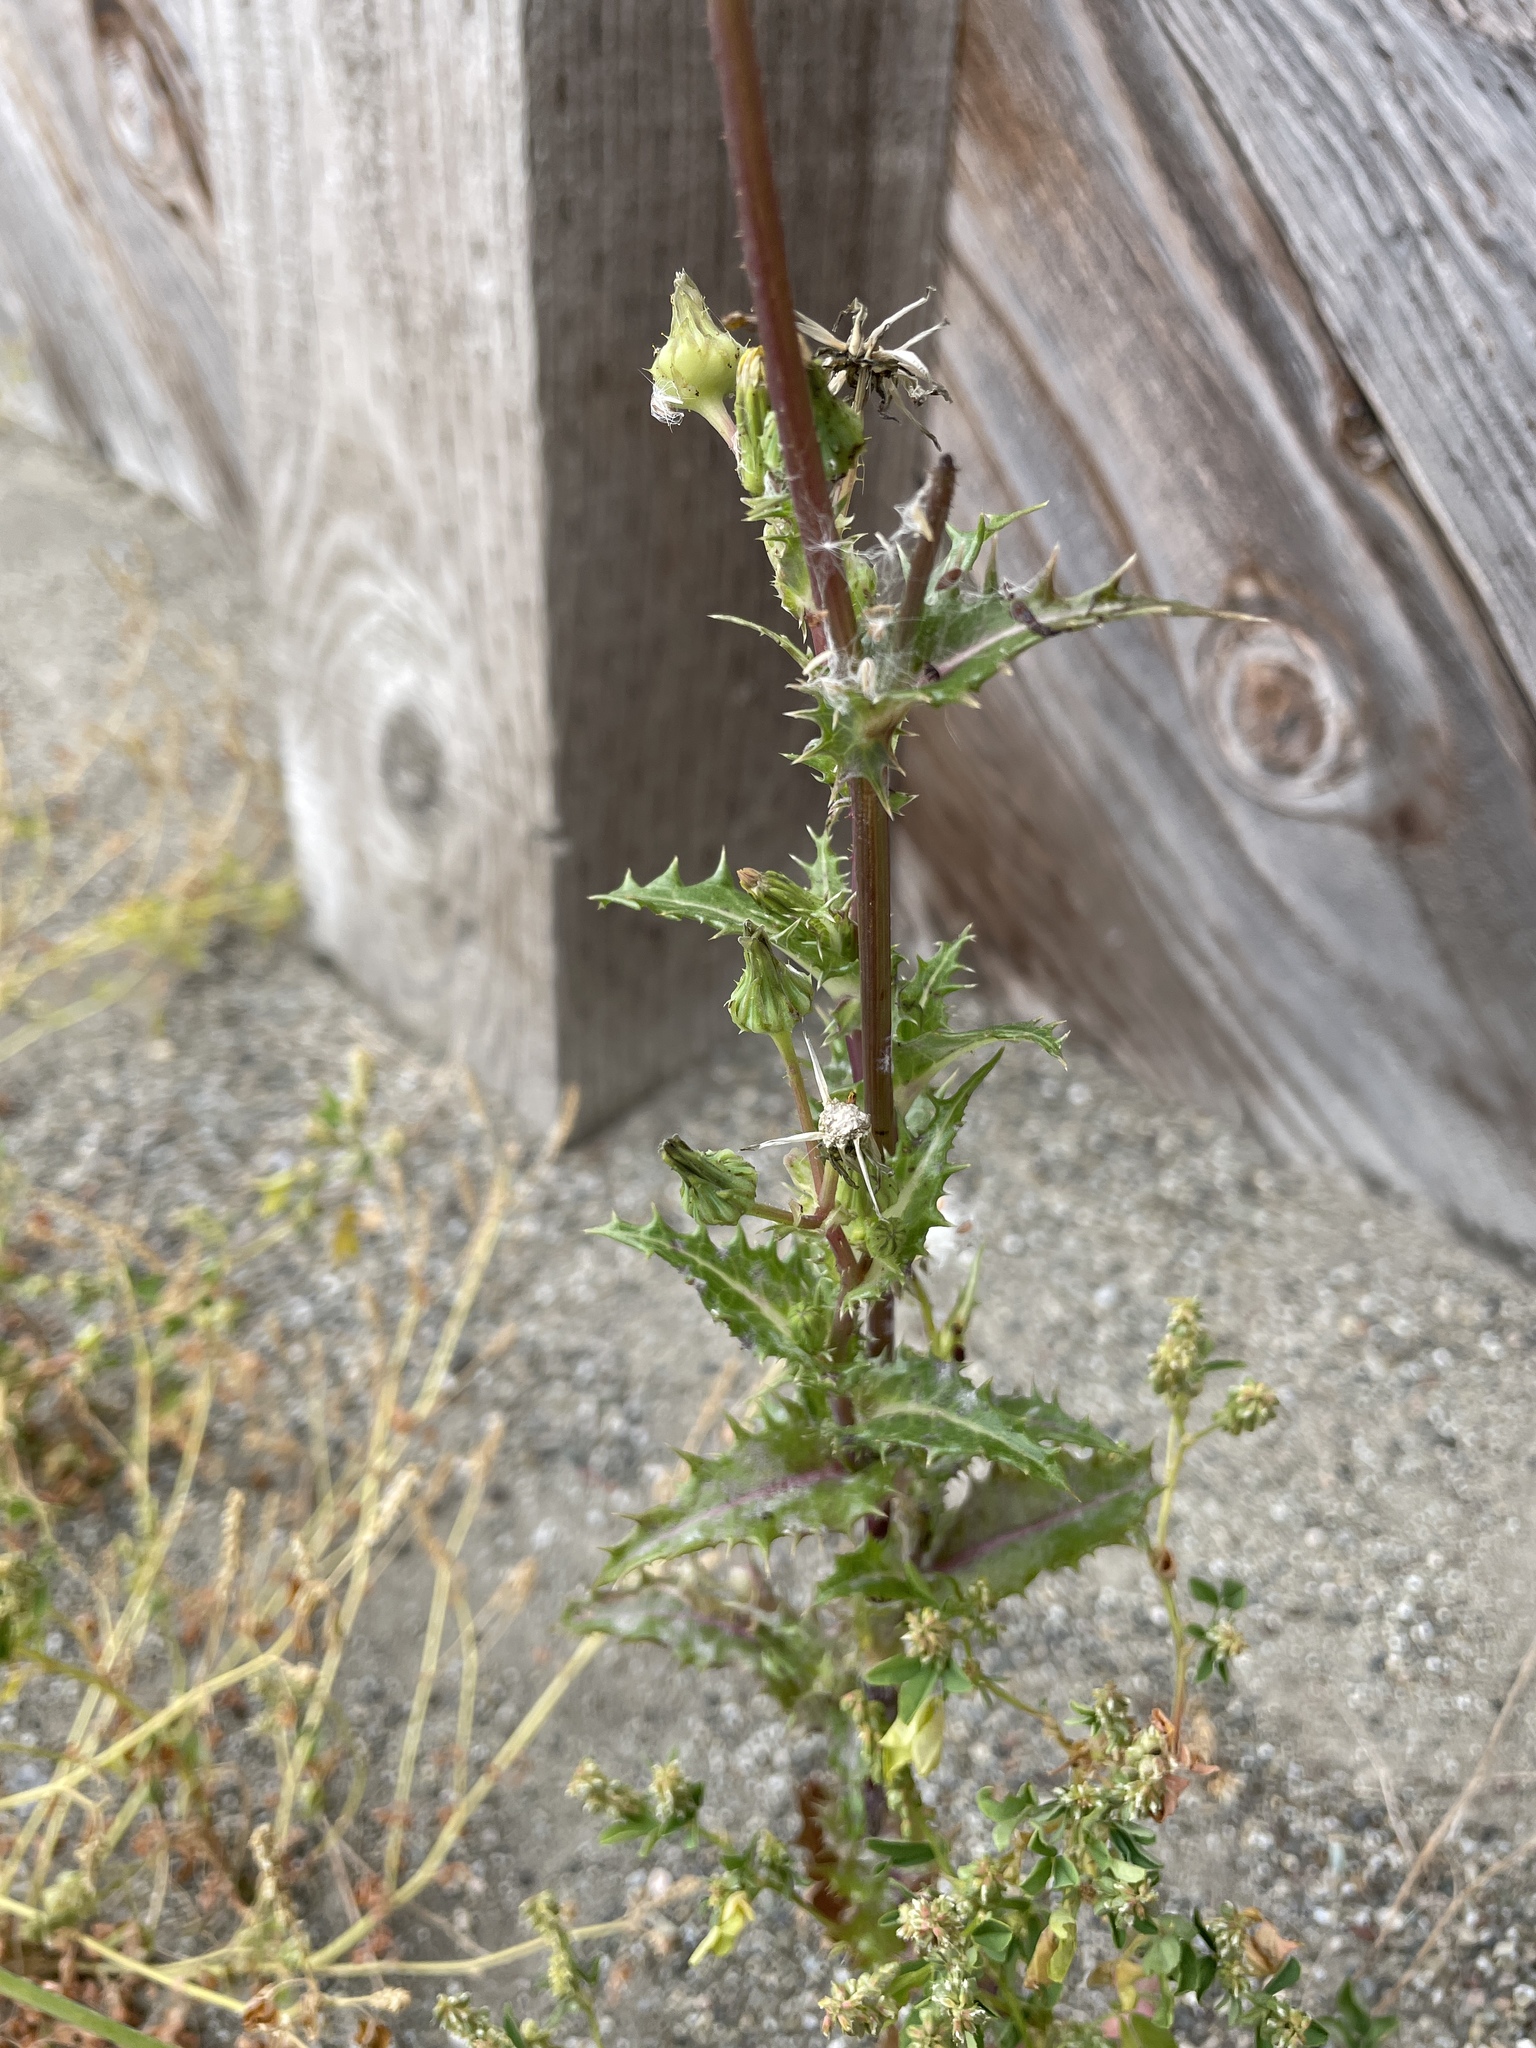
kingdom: Plantae
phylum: Tracheophyta
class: Magnoliopsida
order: Asterales
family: Asteraceae
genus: Sonchus
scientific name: Sonchus asper
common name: Prickly sow-thistle
